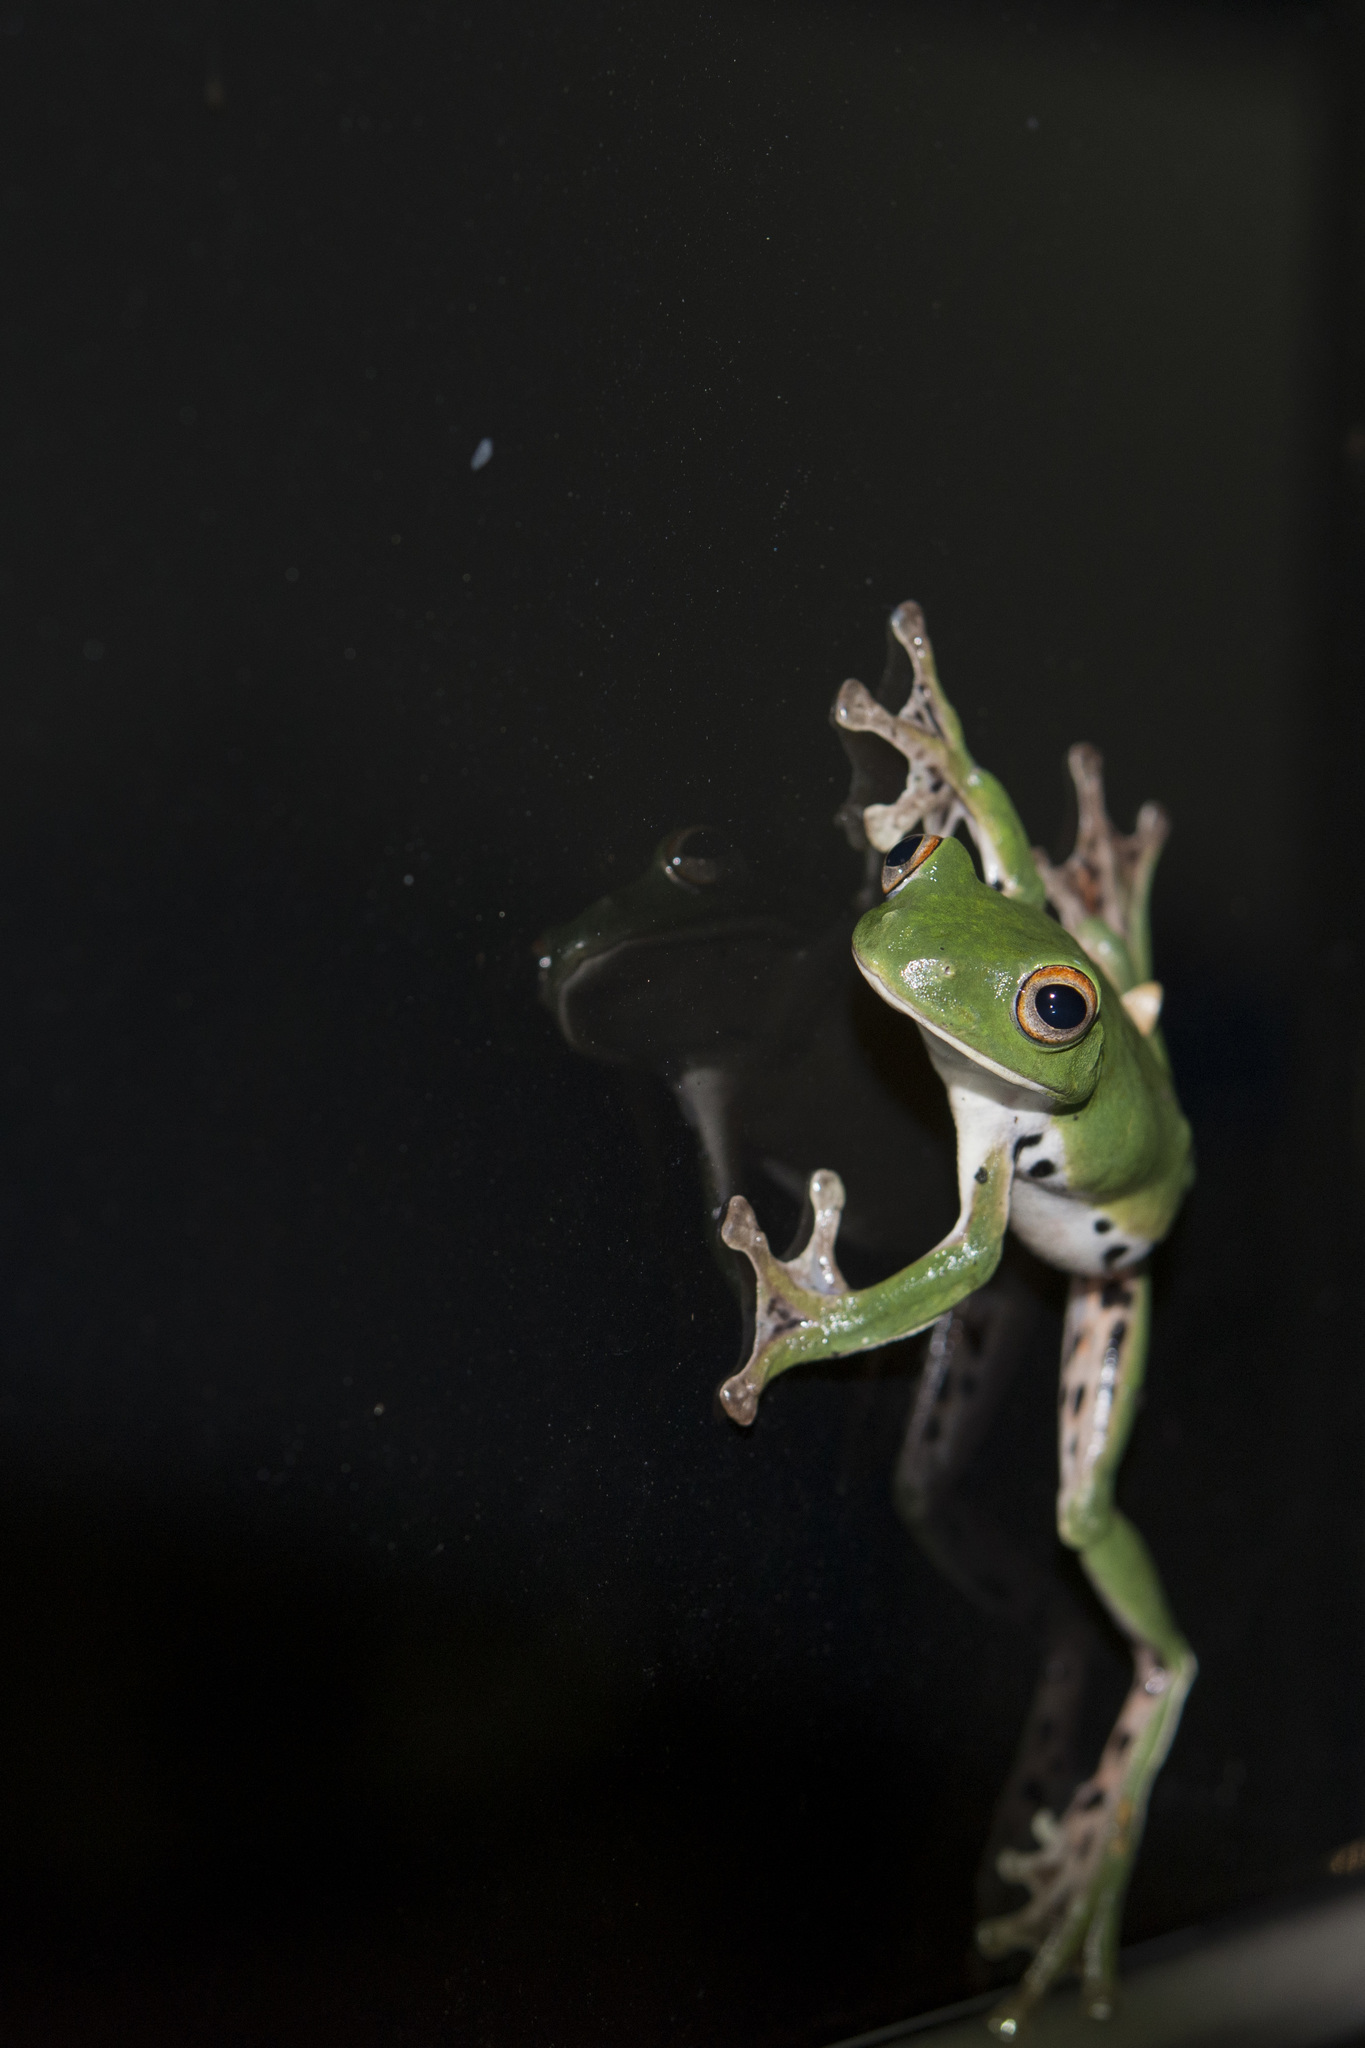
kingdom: Animalia
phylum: Chordata
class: Amphibia
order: Anura
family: Rhacophoridae
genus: Zhangixalus
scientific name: Zhangixalus moltrechti
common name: Moltrecht's treefrog
